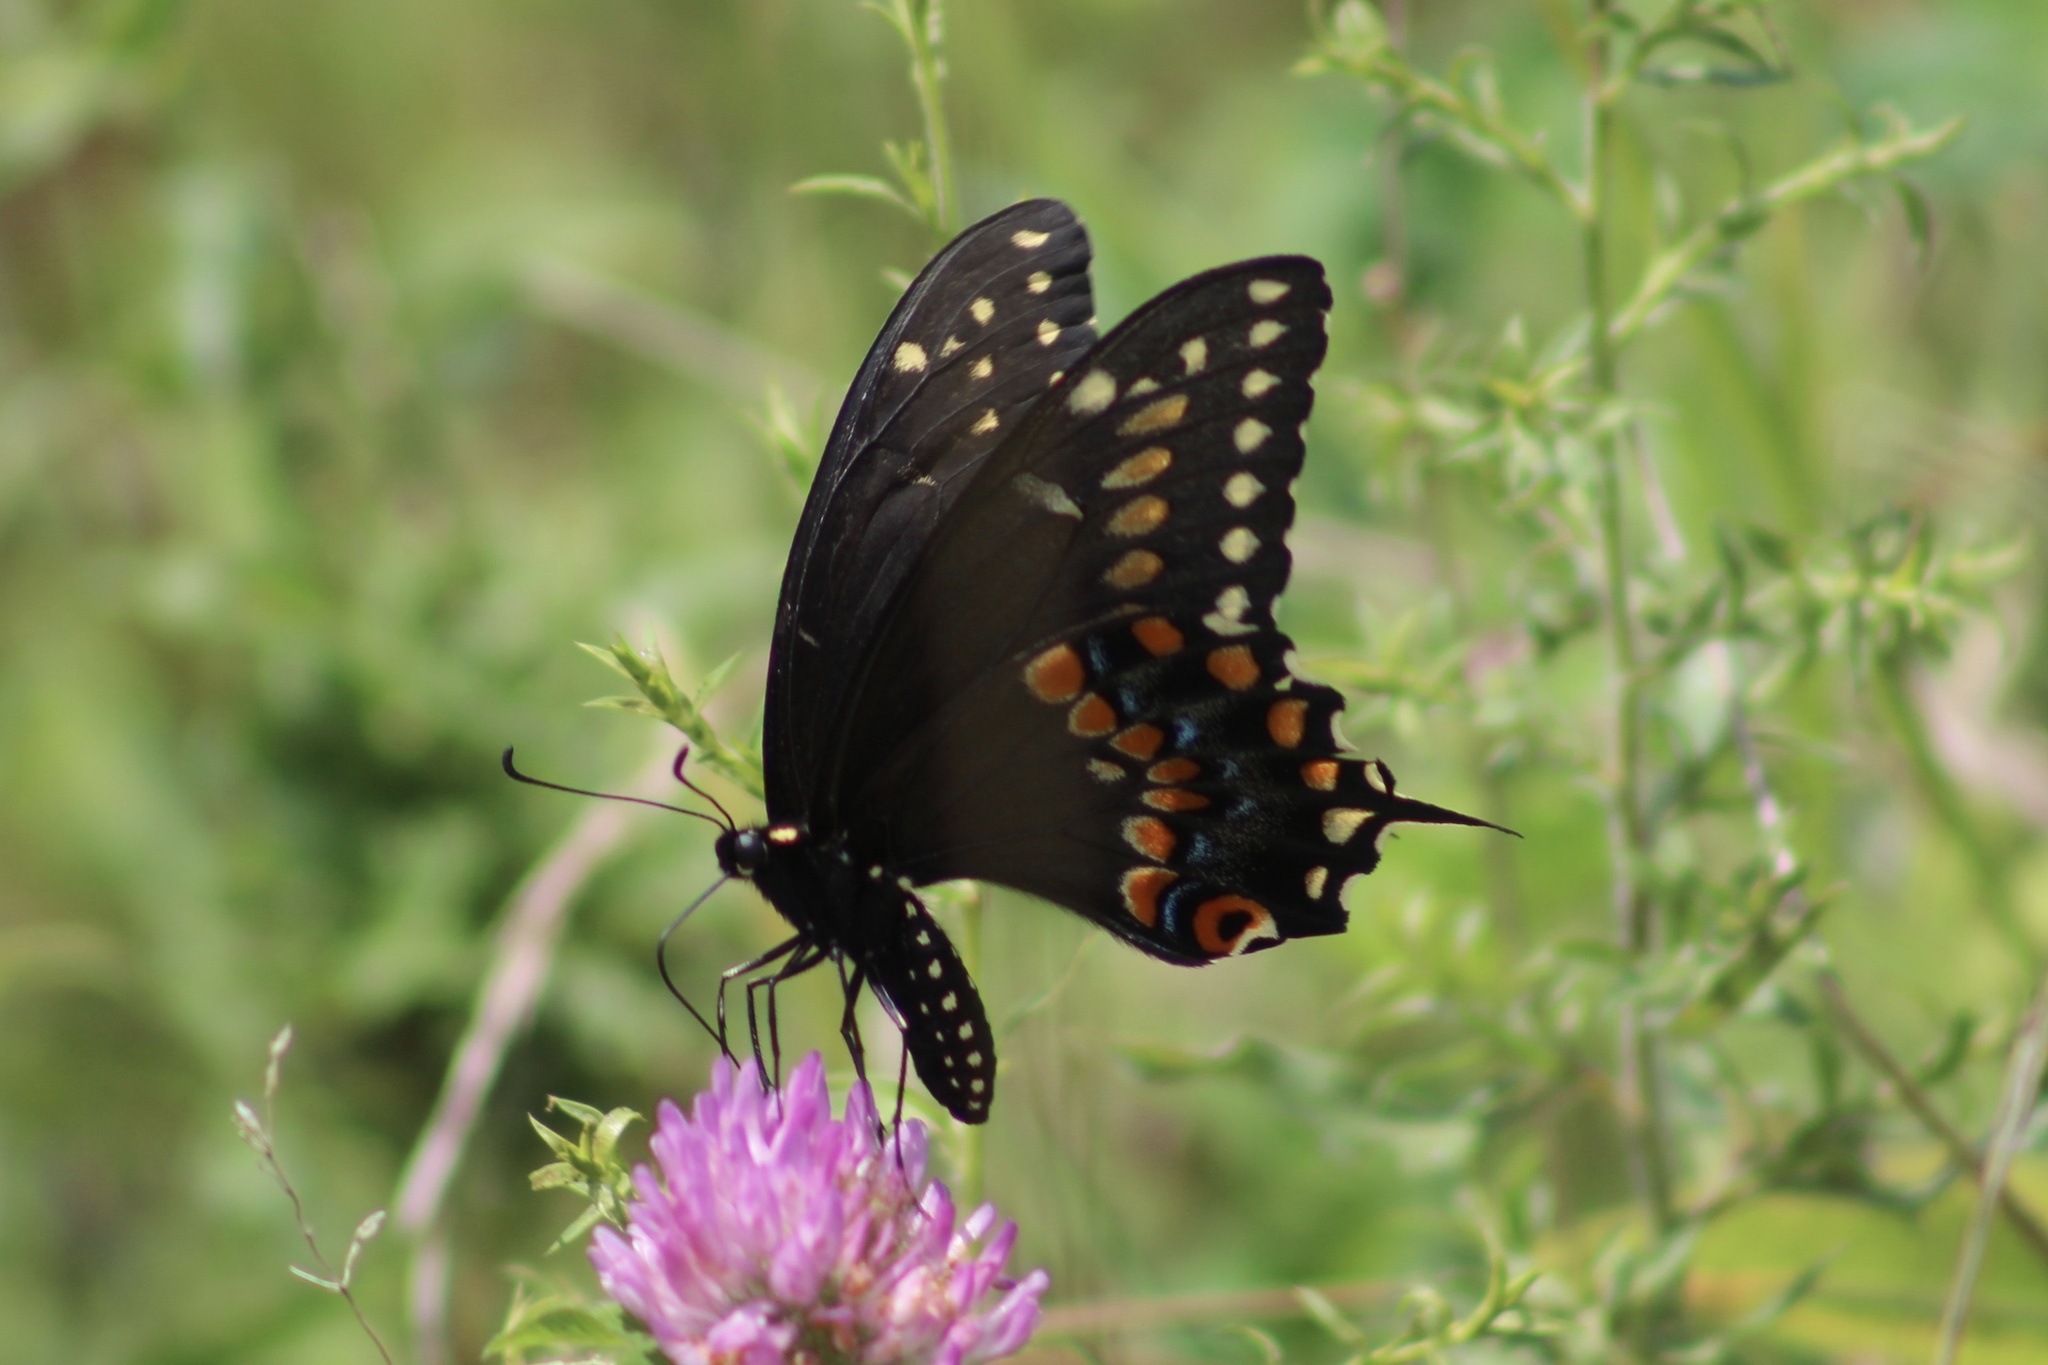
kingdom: Animalia
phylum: Arthropoda
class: Insecta
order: Lepidoptera
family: Papilionidae
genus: Papilio
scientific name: Papilio polyxenes
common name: Black swallowtail
